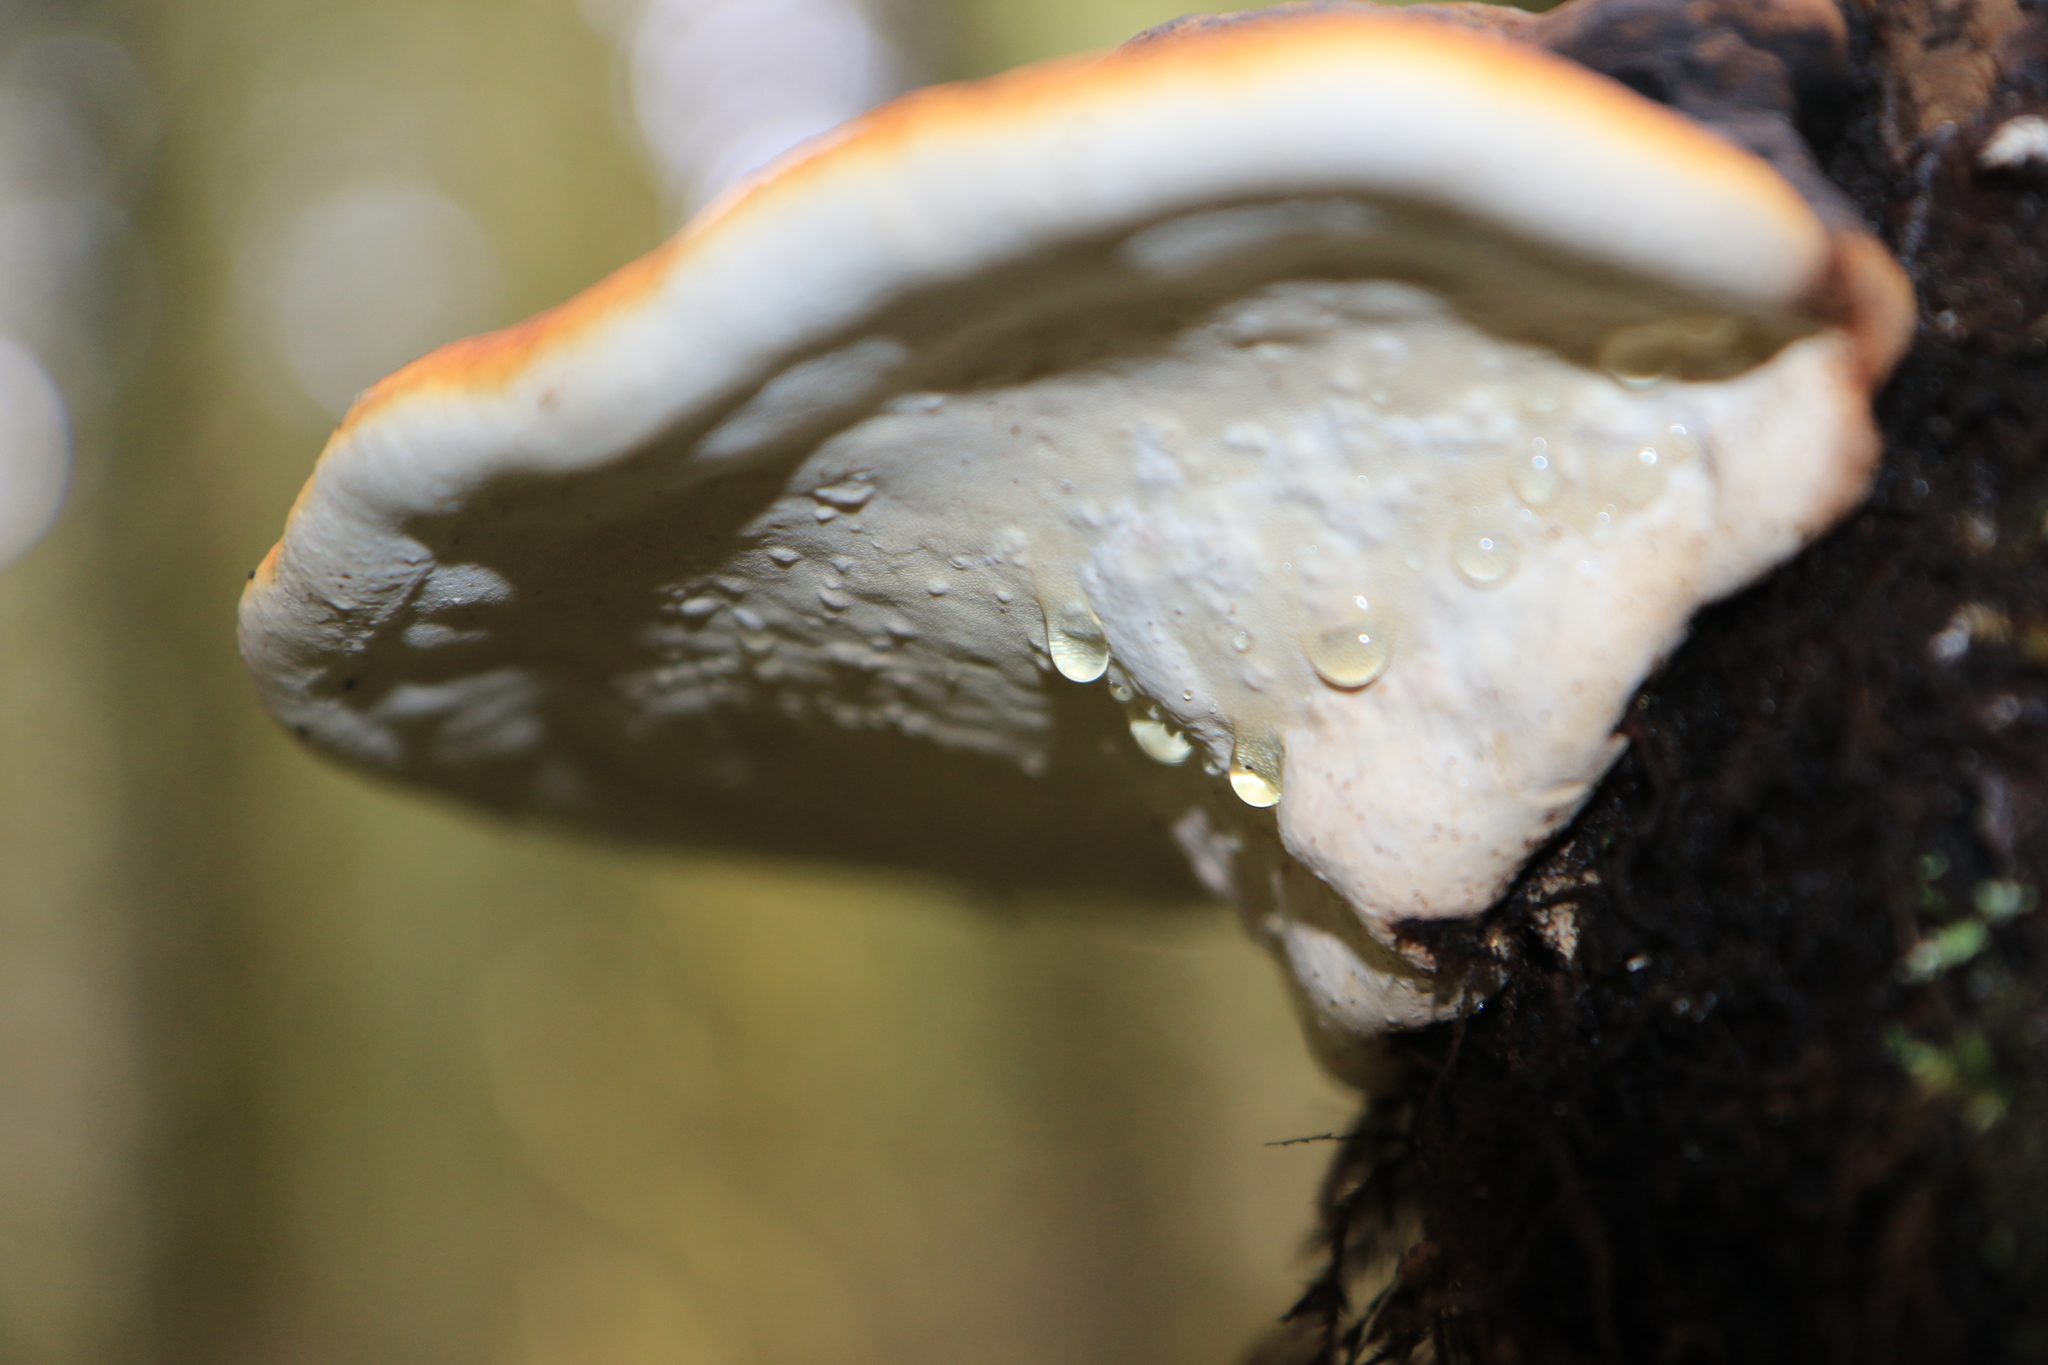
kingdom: Fungi
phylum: Basidiomycota
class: Agaricomycetes
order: Polyporales
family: Fomitopsidaceae
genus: Fomitopsis
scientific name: Fomitopsis mounceae
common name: Northern red belt
